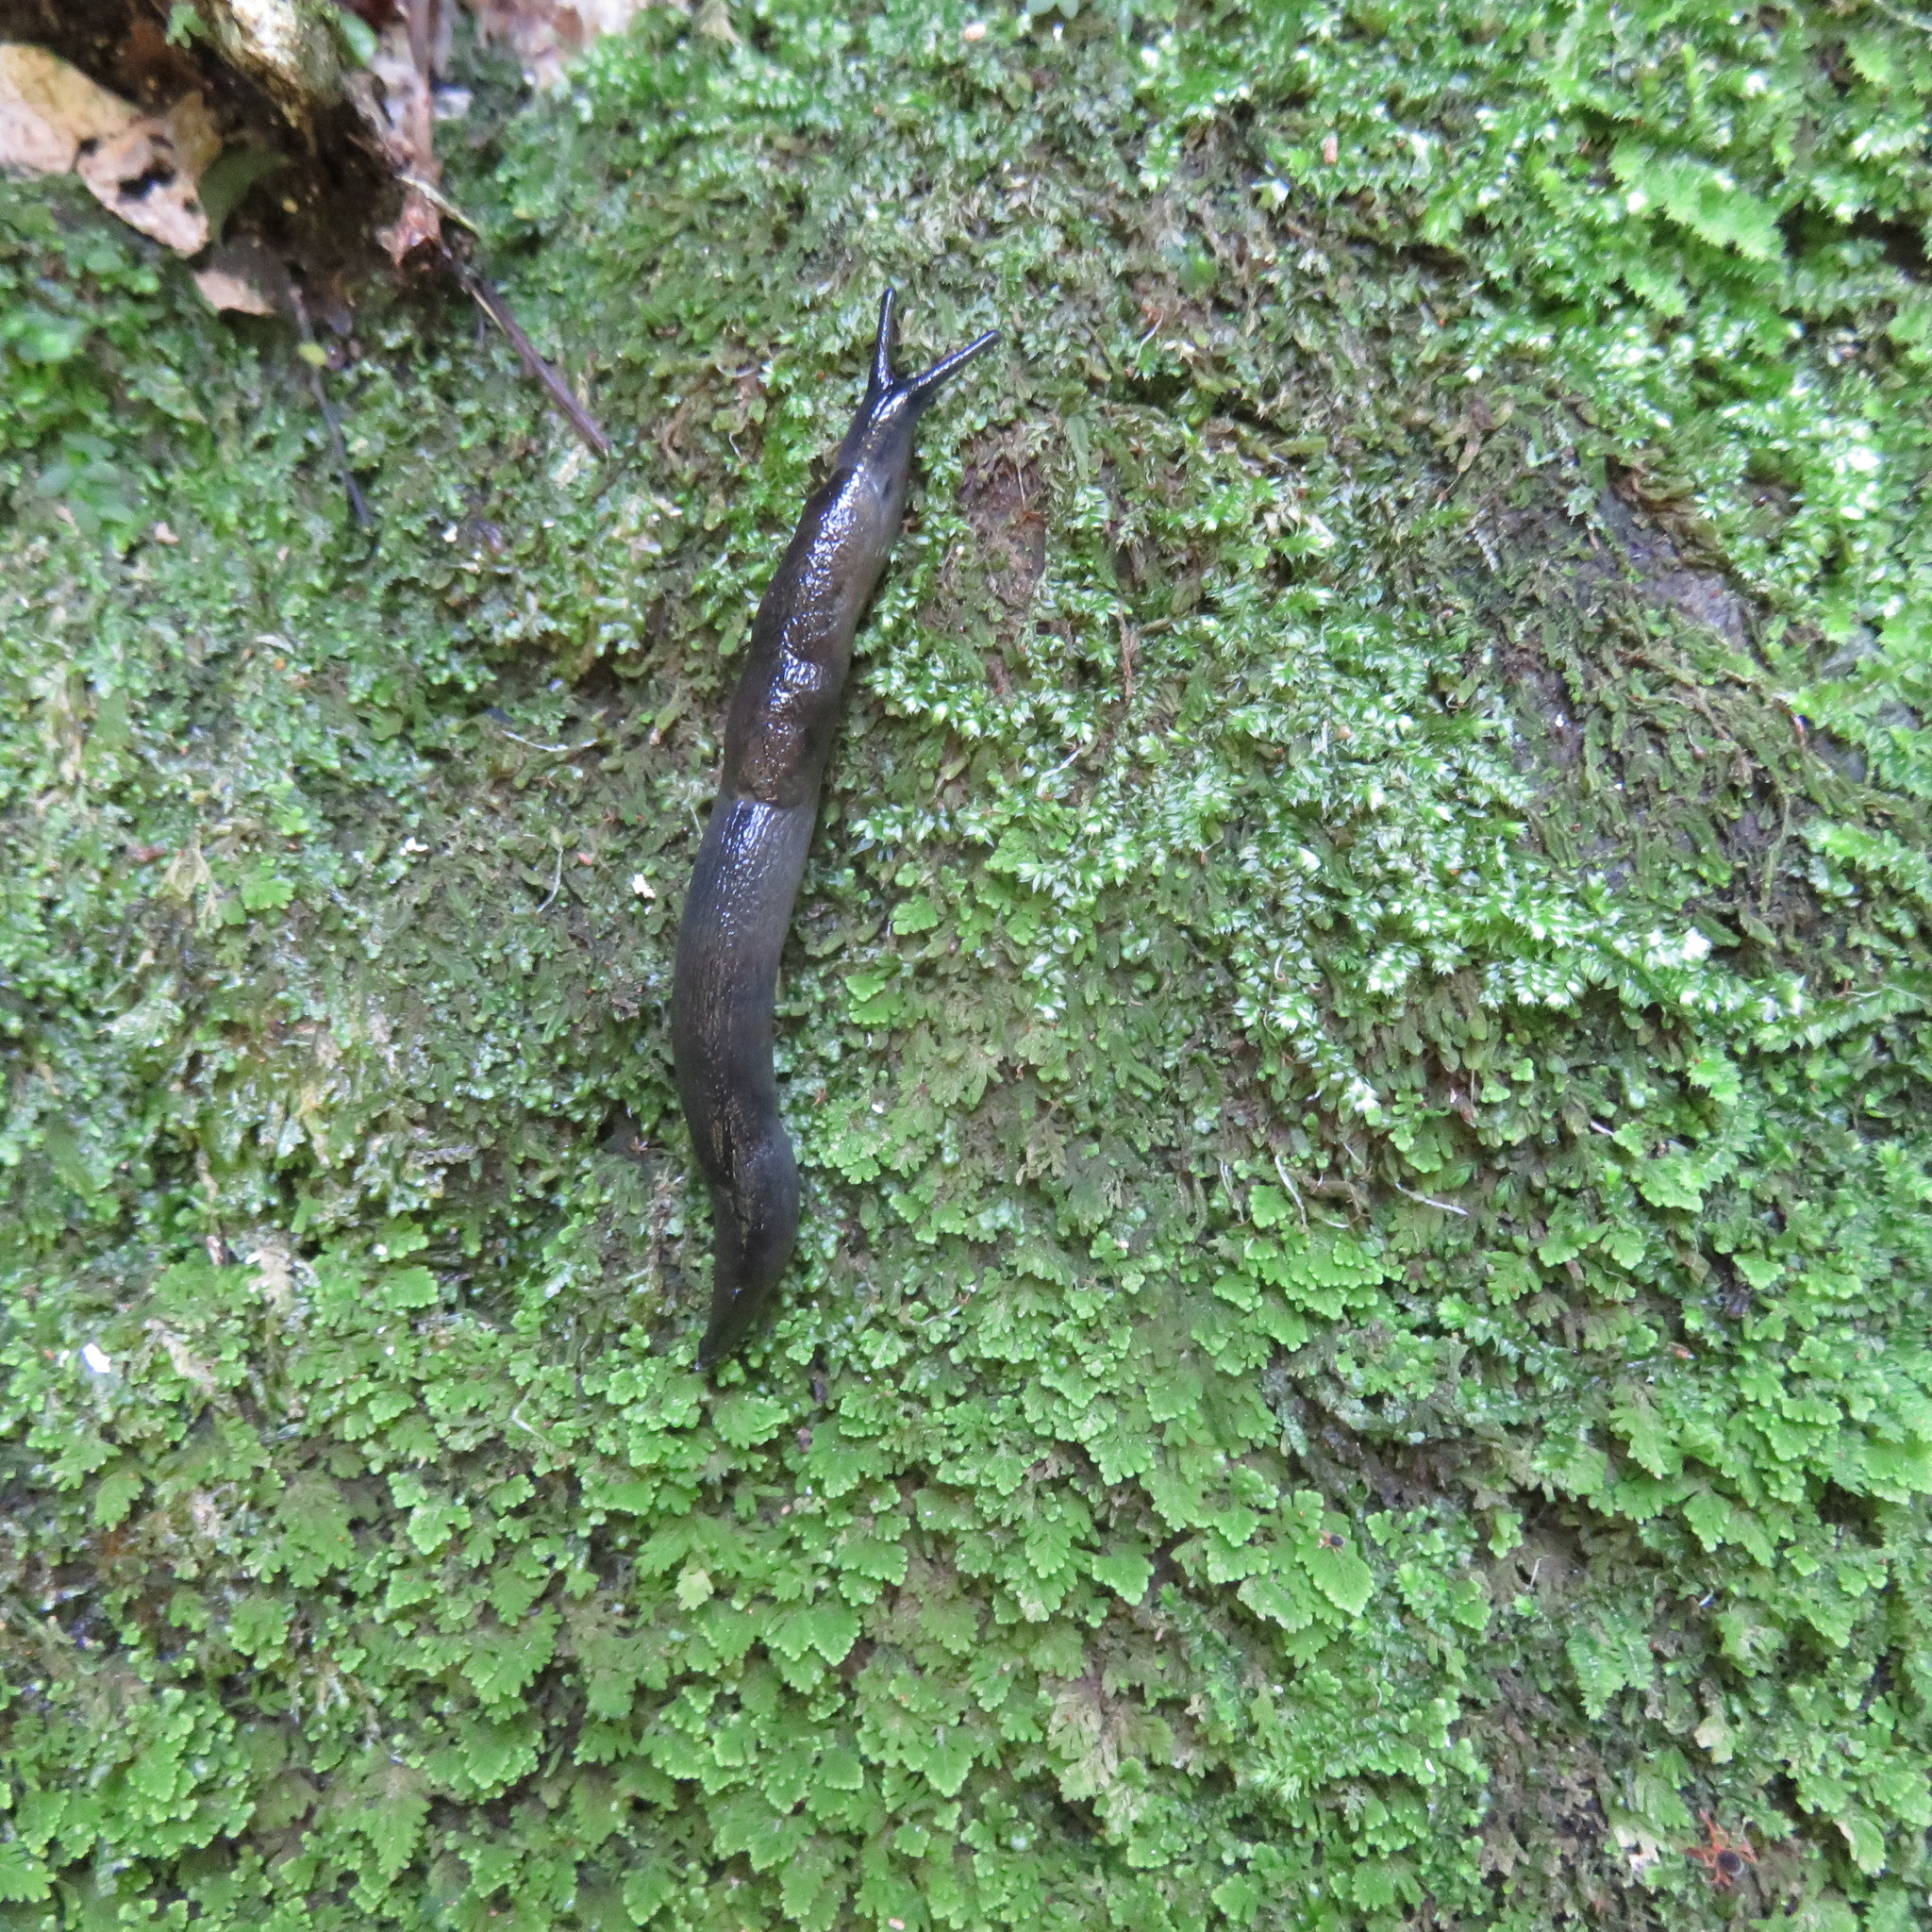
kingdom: Animalia
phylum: Mollusca
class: Gastropoda
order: Stylommatophora
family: Milacidae
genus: Milax
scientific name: Milax gagates
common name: Greenhouse slug
